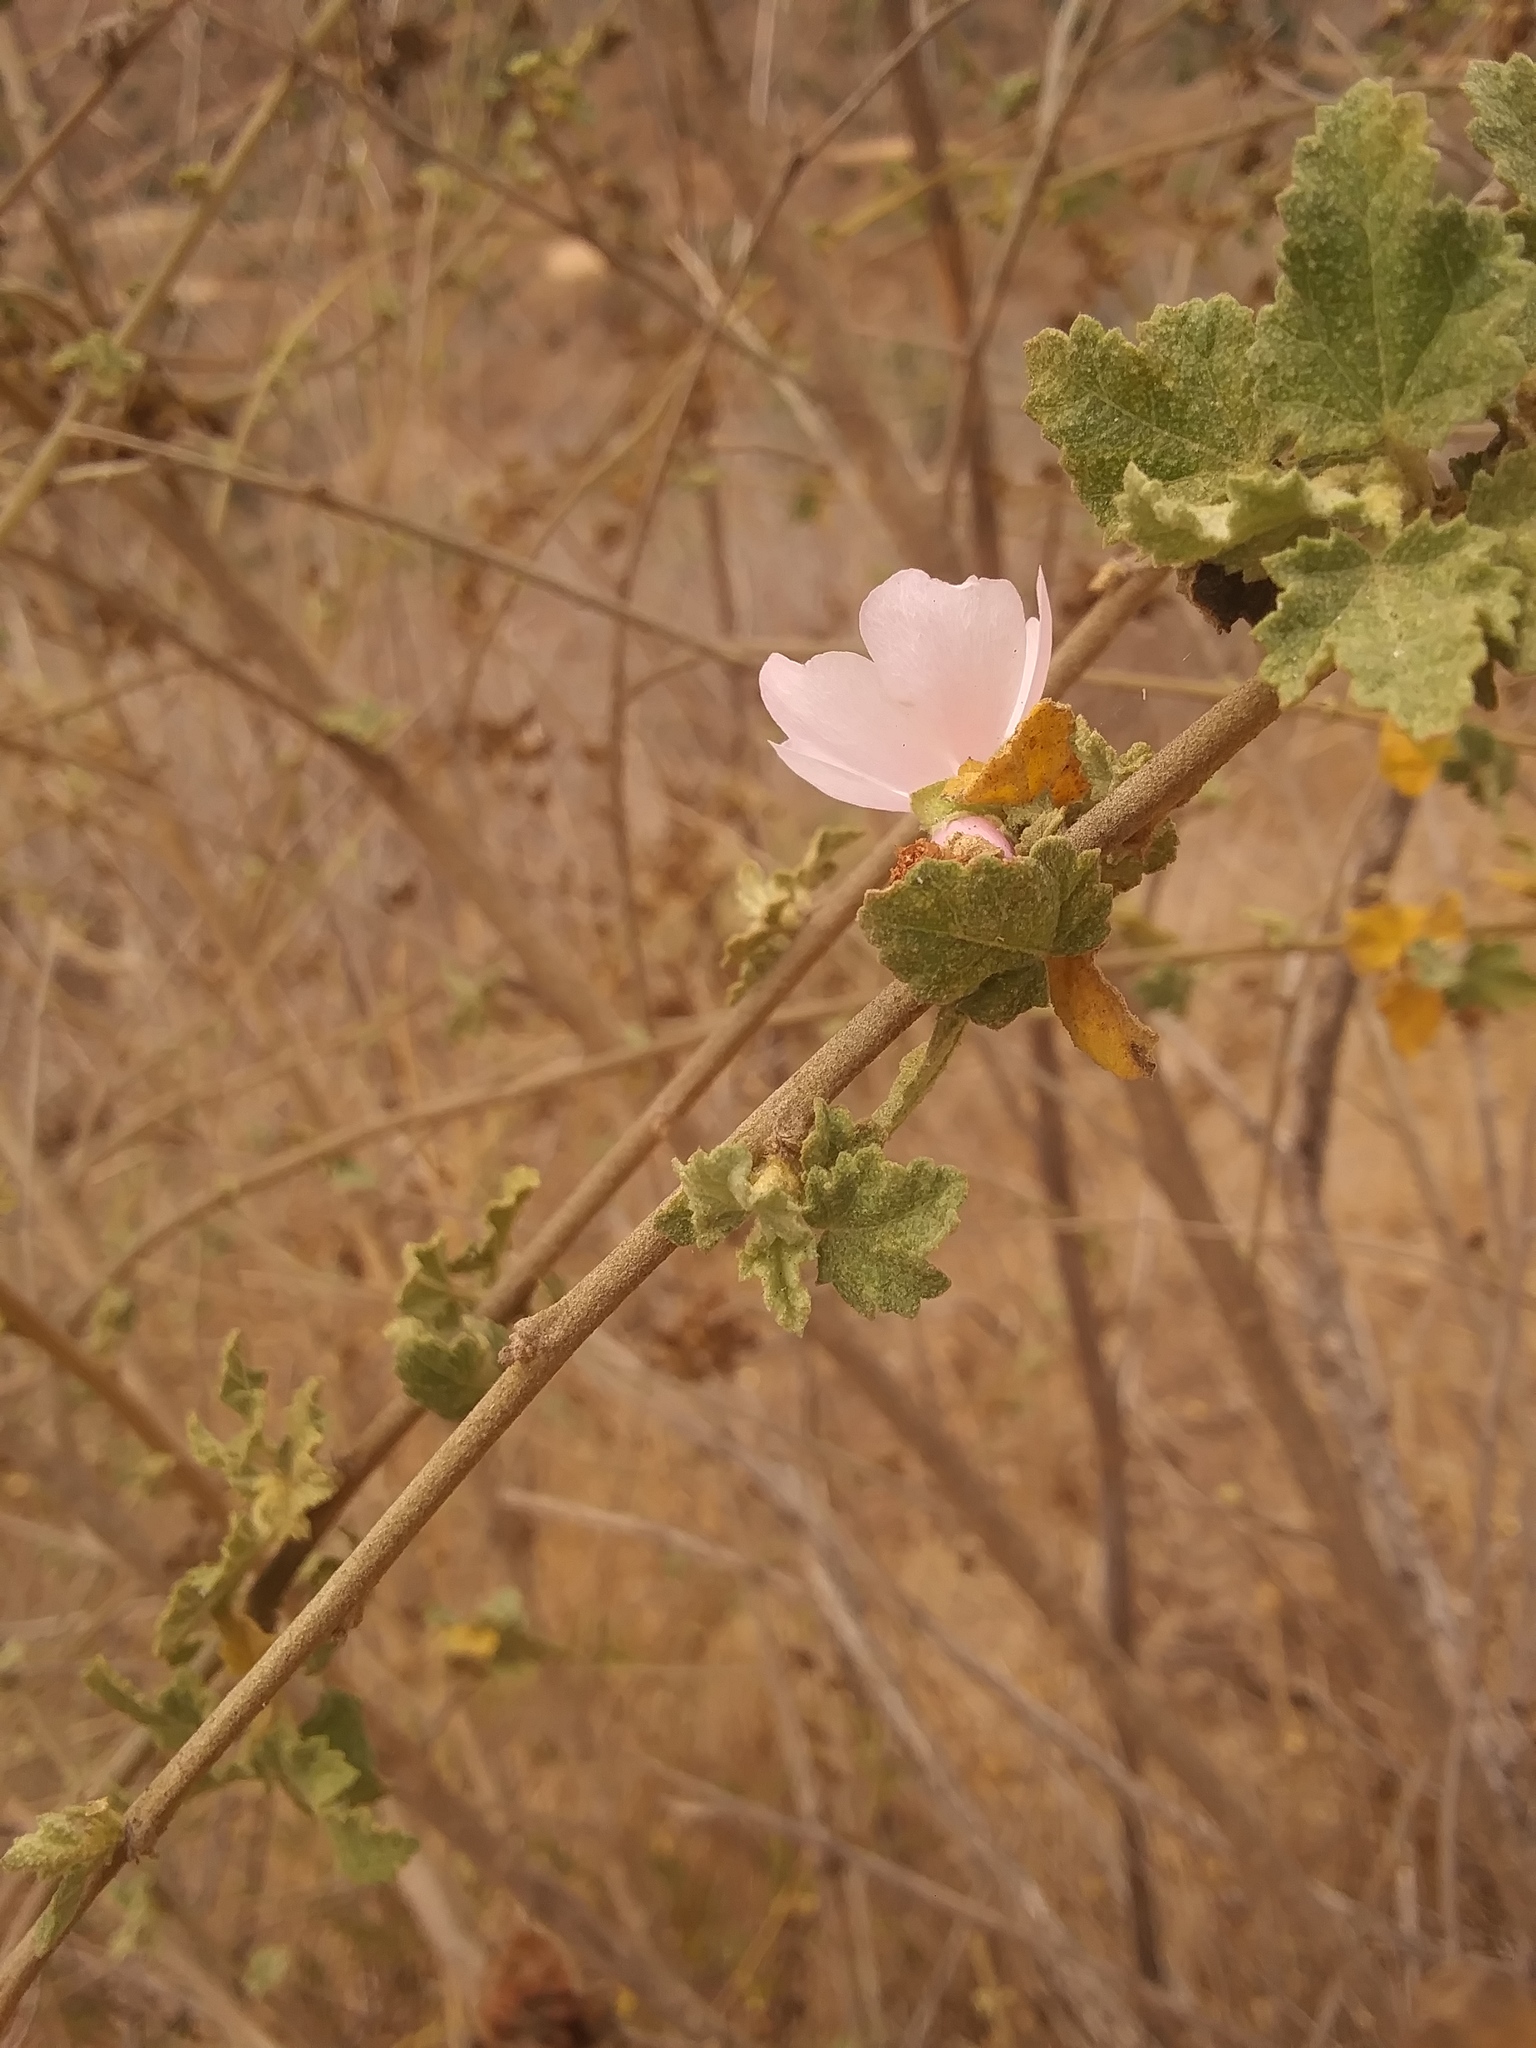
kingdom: Plantae
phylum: Tracheophyta
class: Magnoliopsida
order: Malvales
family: Malvaceae
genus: Malacothamnus
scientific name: Malacothamnus fasciculatus
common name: Sant cruz island bush-mallow
